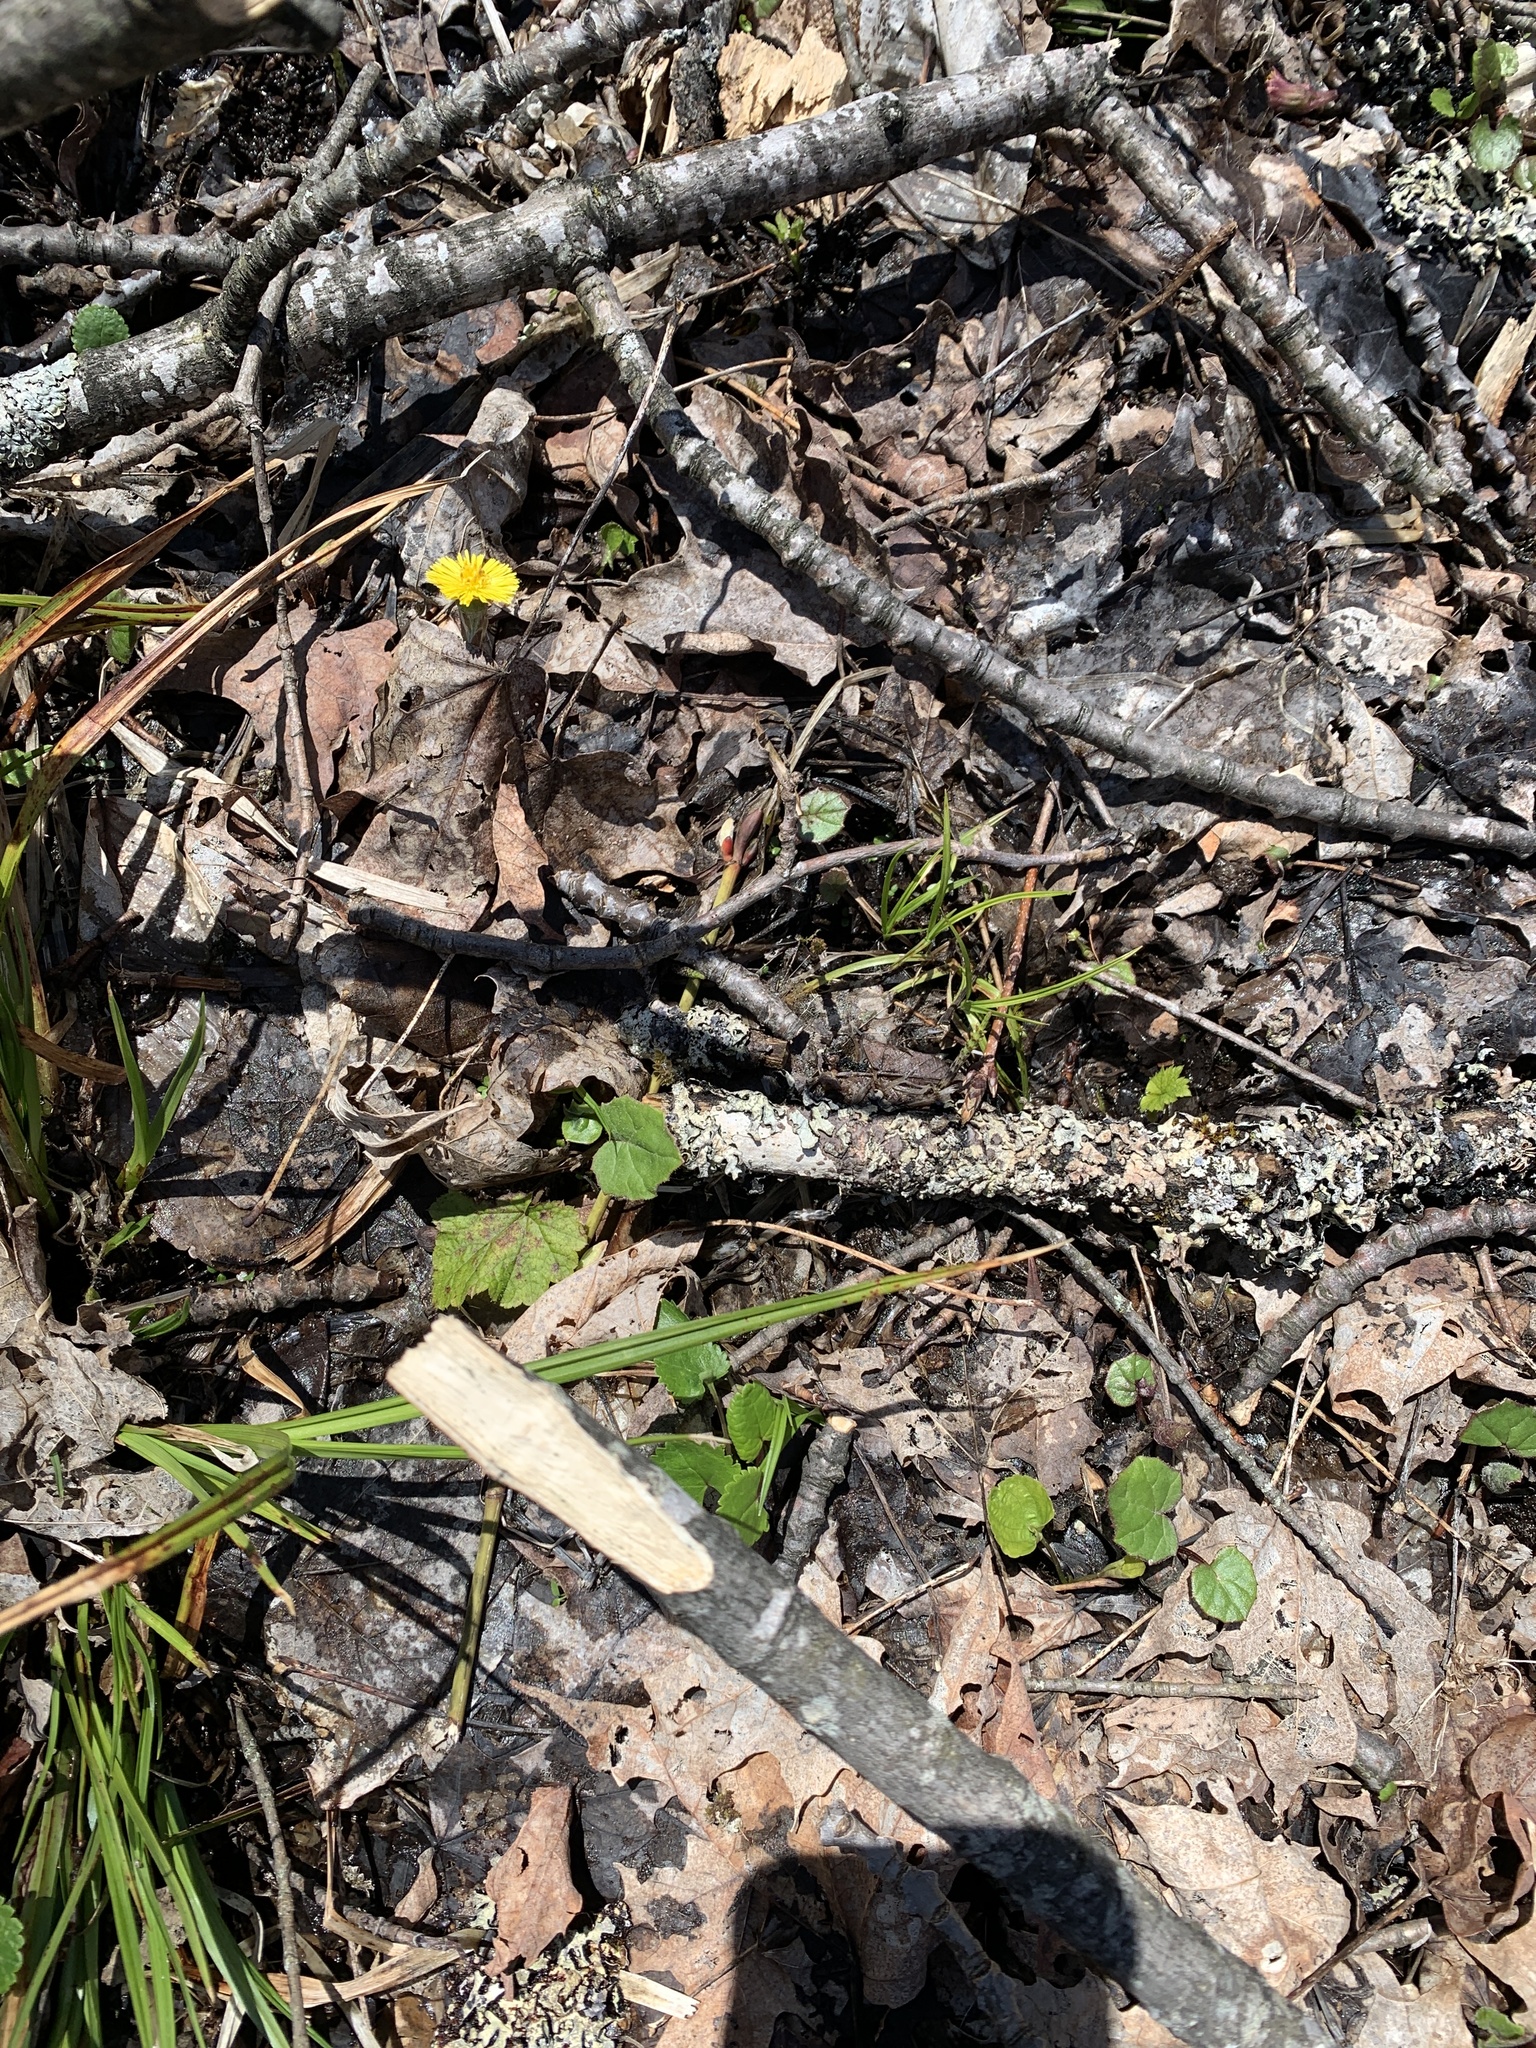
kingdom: Plantae
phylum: Tracheophyta
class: Magnoliopsida
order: Asterales
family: Asteraceae
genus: Tussilago
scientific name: Tussilago farfara
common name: Coltsfoot
